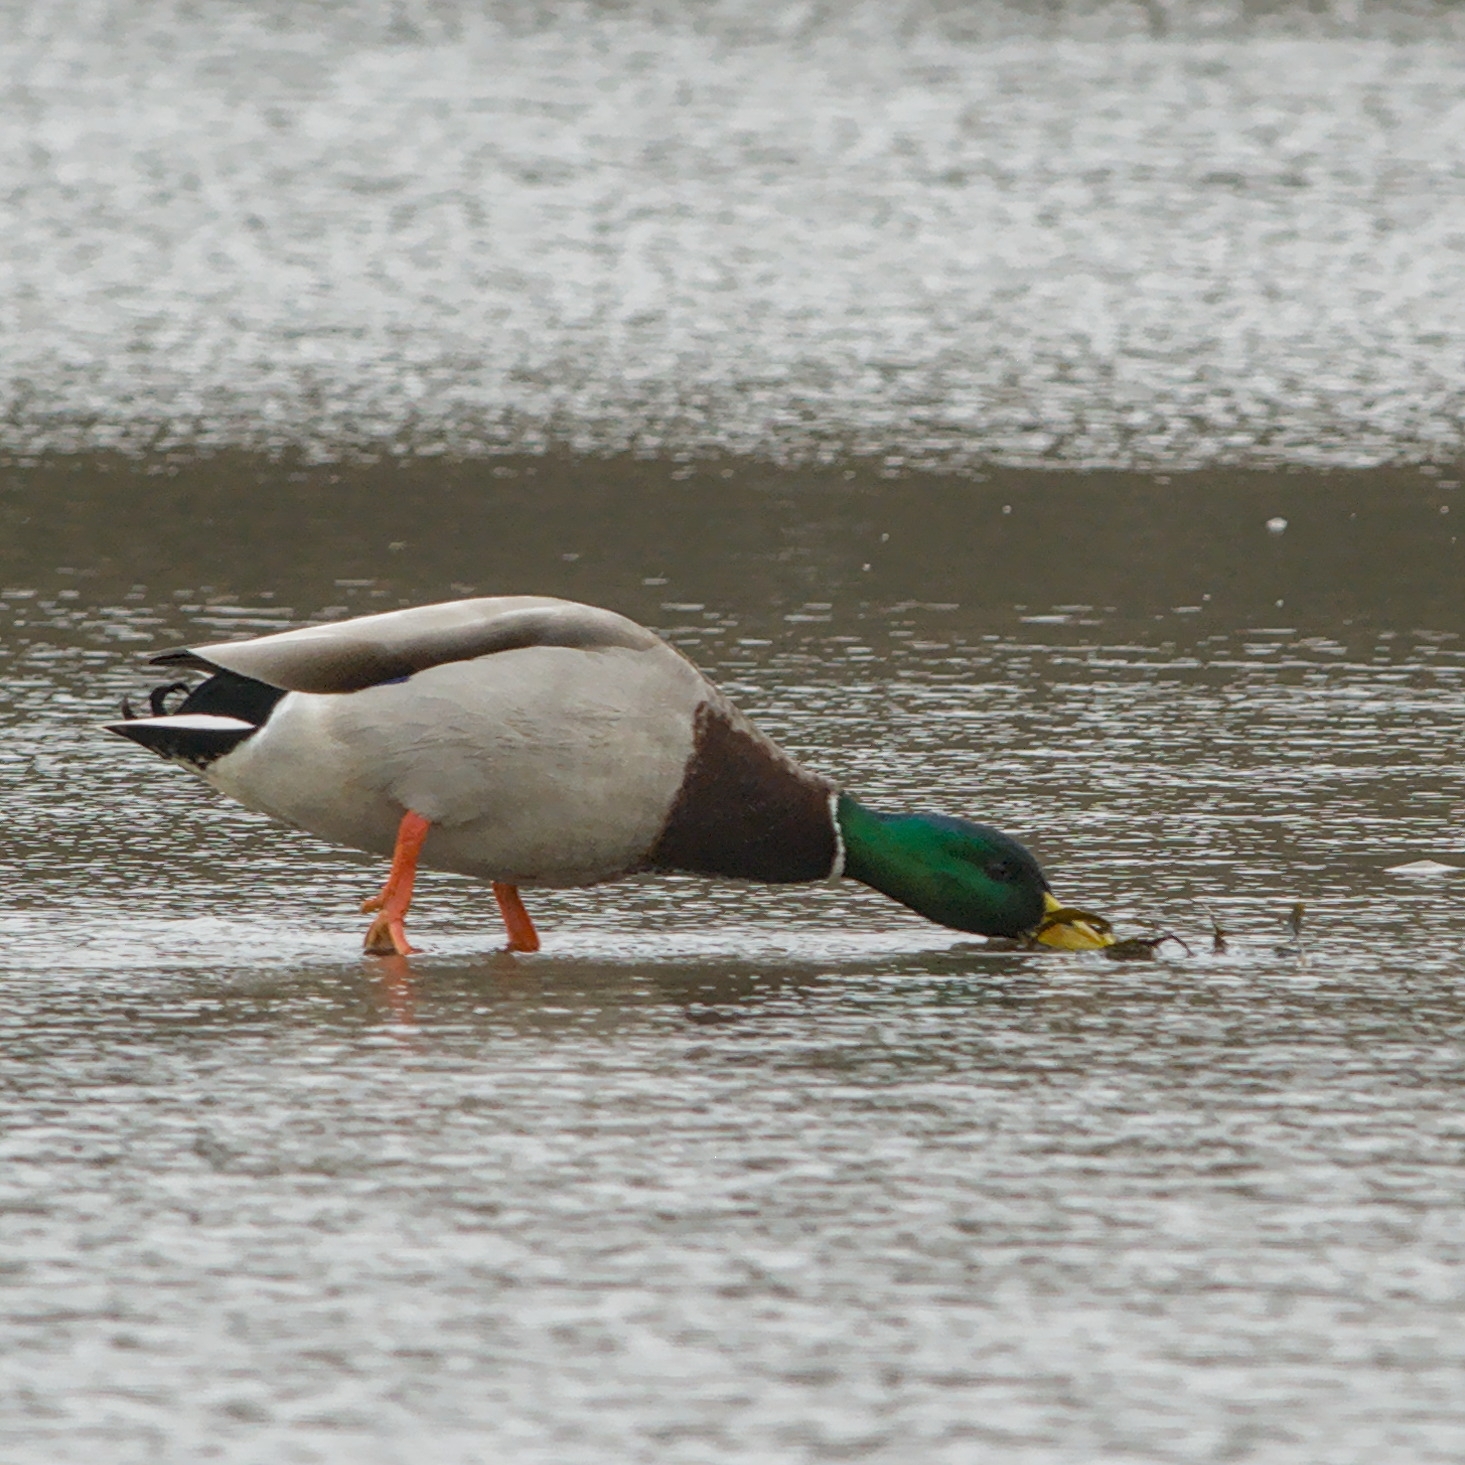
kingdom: Animalia
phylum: Chordata
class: Aves
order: Anseriformes
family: Anatidae
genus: Anas
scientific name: Anas platyrhynchos
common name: Mallard
